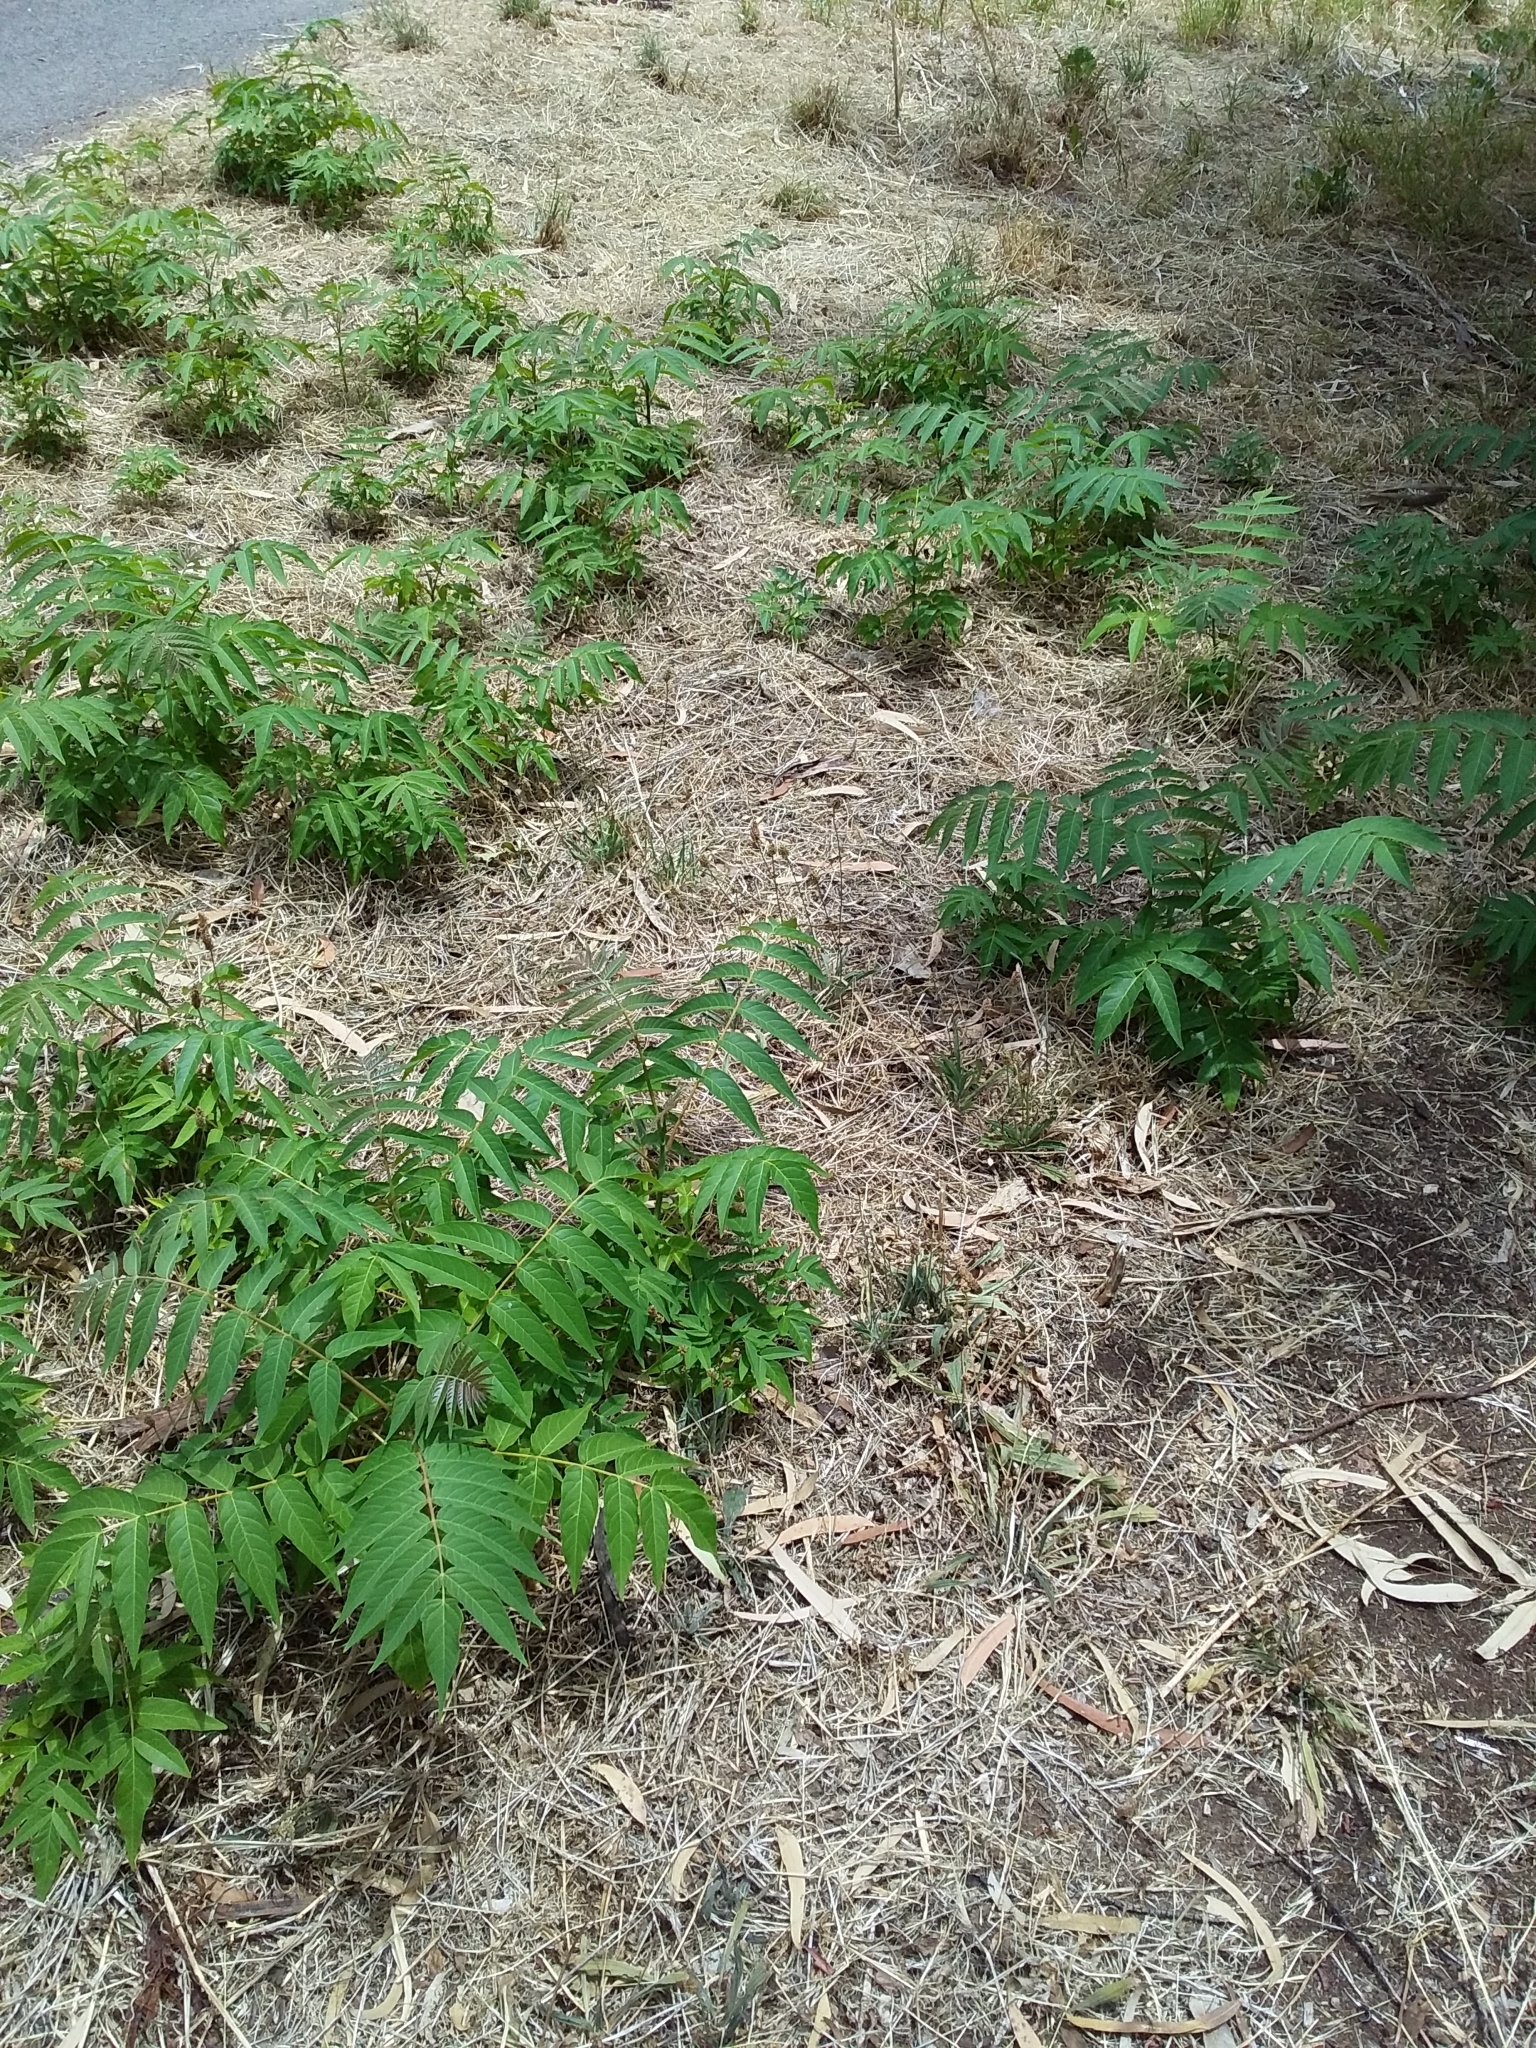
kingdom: Plantae
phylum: Tracheophyta
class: Magnoliopsida
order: Sapindales
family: Simaroubaceae
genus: Ailanthus
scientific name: Ailanthus altissima
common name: Tree-of-heaven
